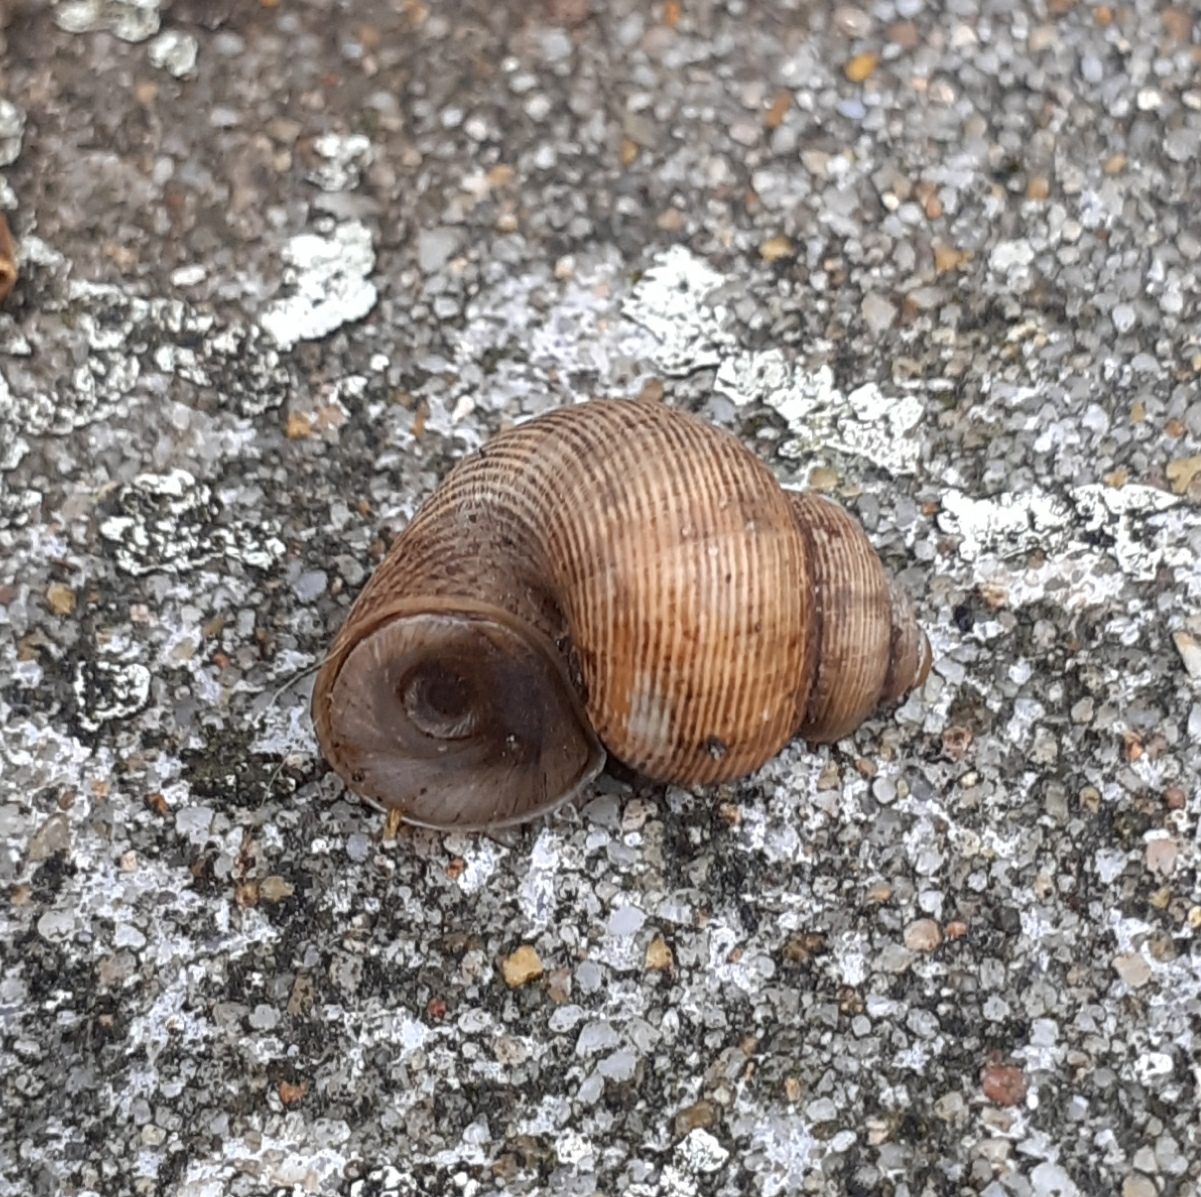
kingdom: Animalia
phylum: Mollusca
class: Gastropoda
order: Littorinimorpha
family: Pomatiidae
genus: Pomatias
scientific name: Pomatias elegans
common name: Red-mouthed snail
